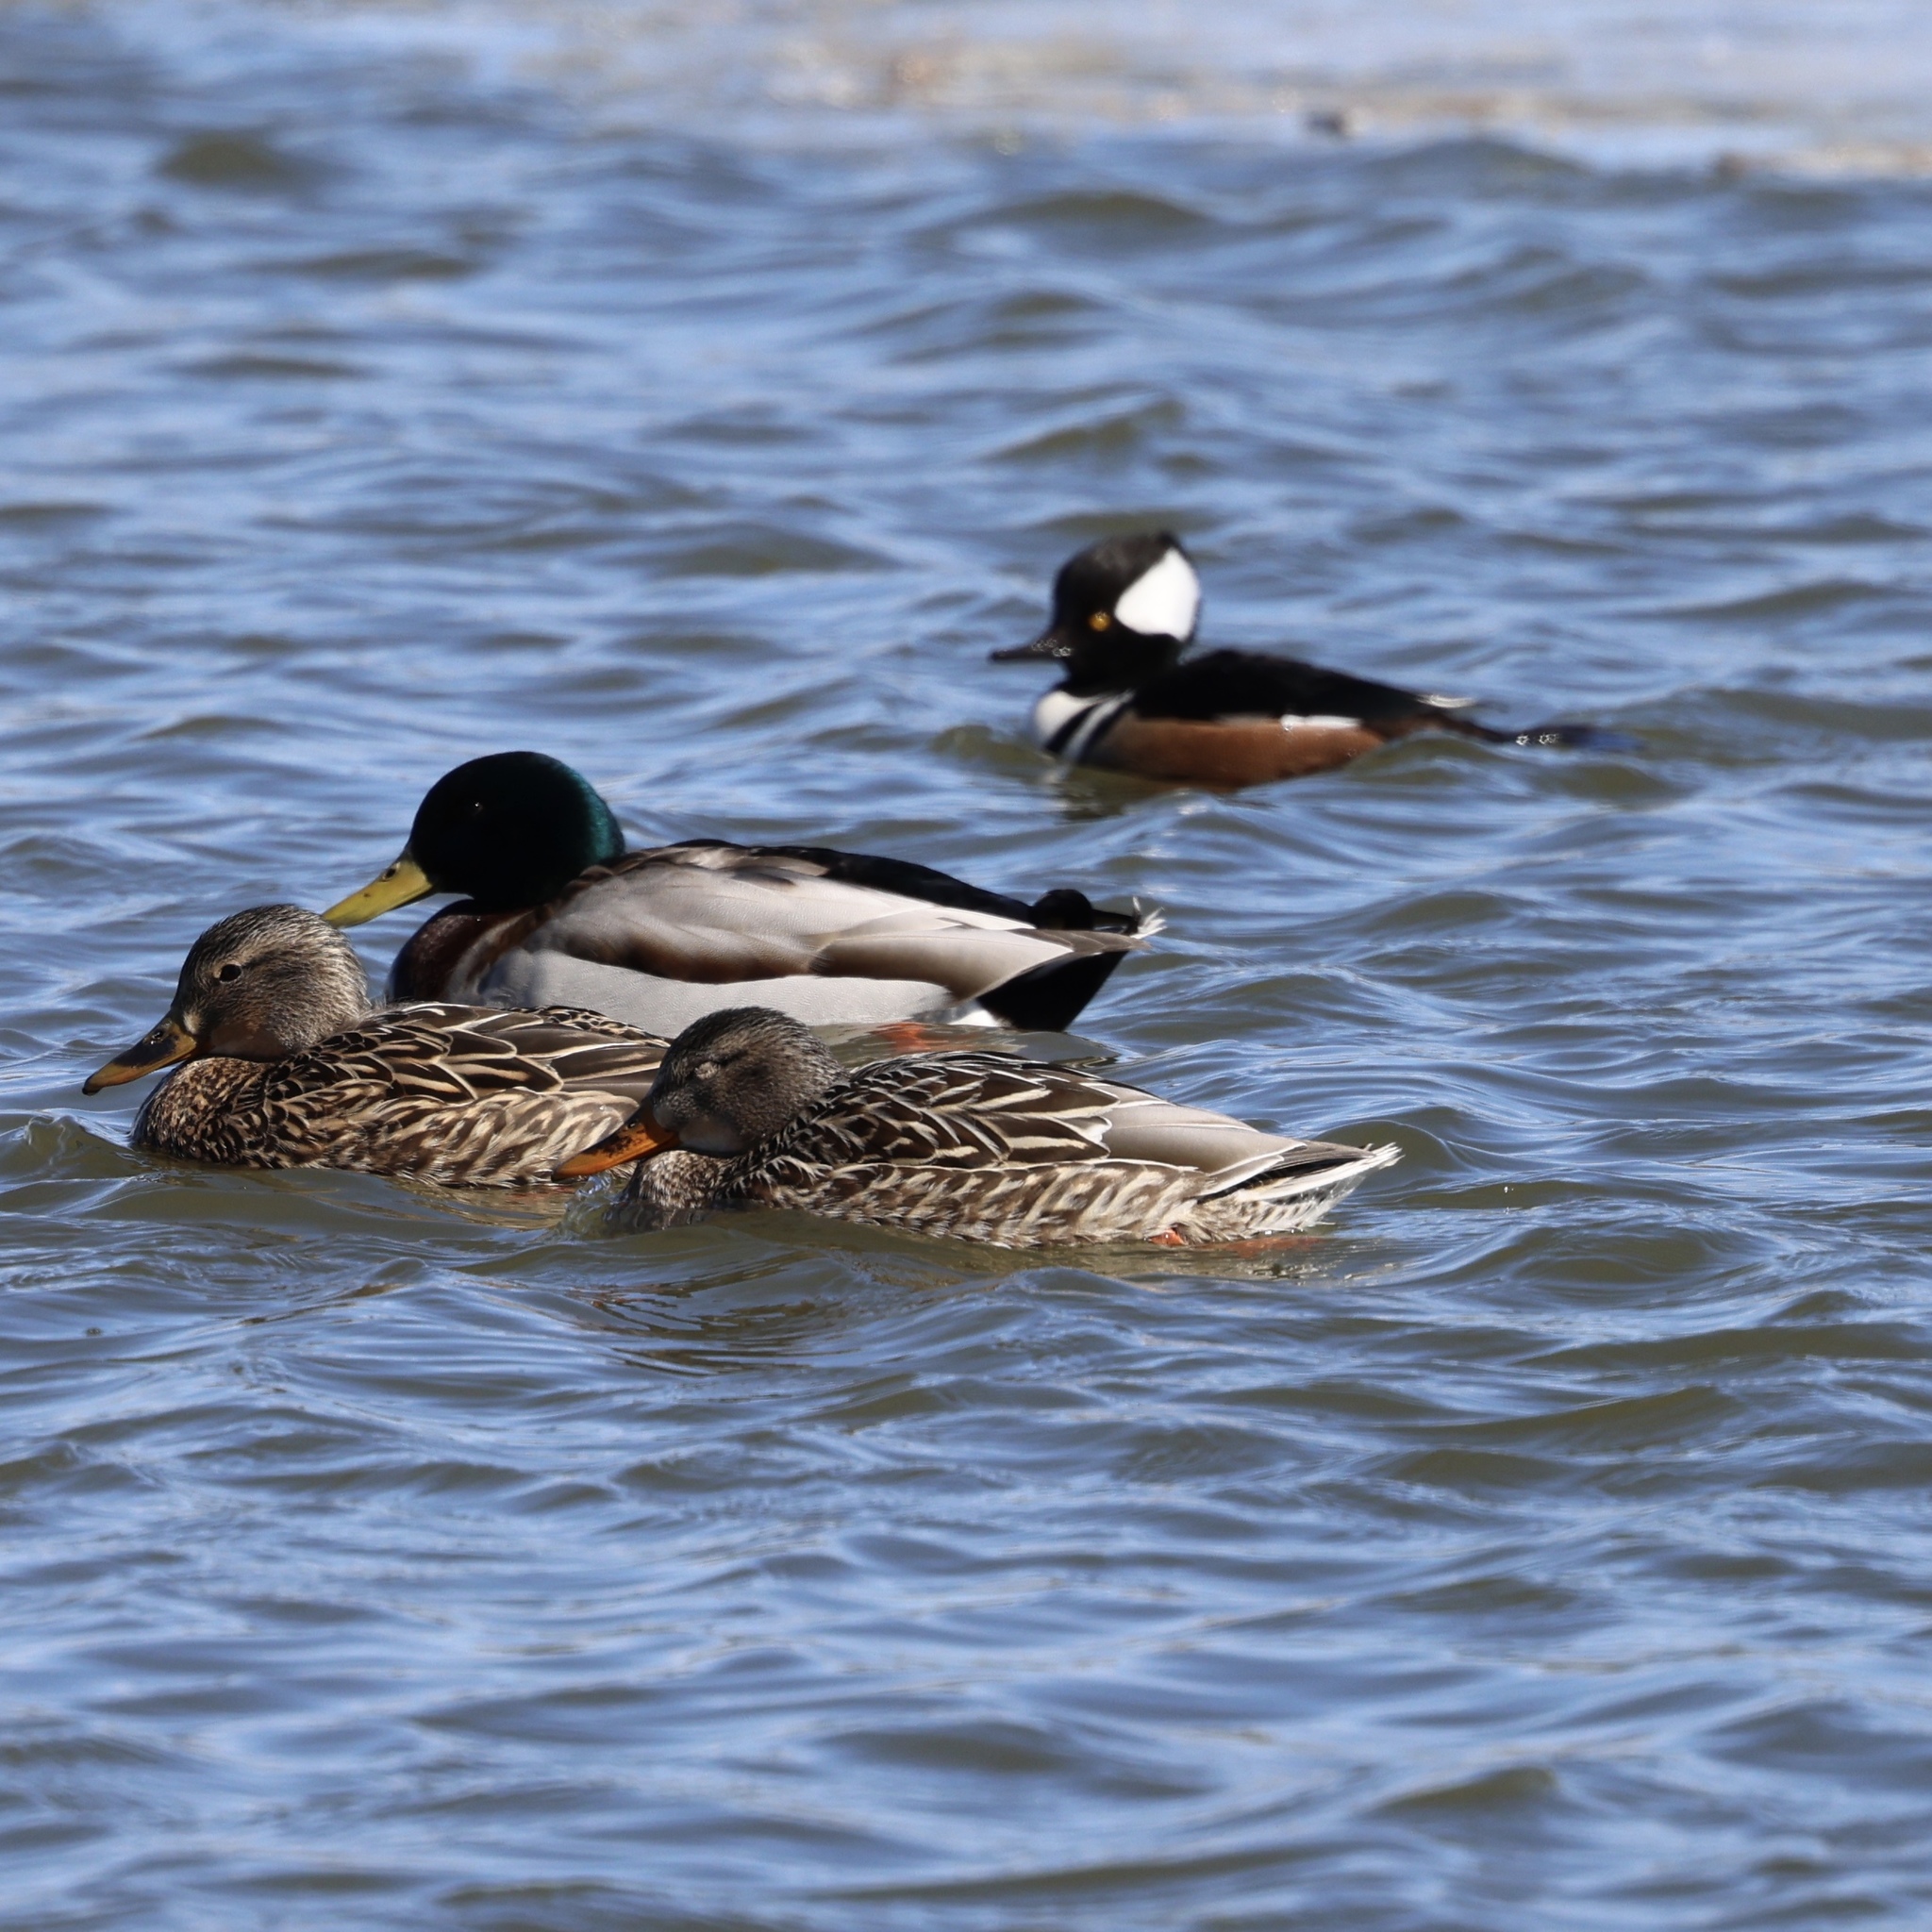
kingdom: Animalia
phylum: Chordata
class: Aves
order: Anseriformes
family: Anatidae
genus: Lophodytes
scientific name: Lophodytes cucullatus
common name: Hooded merganser
